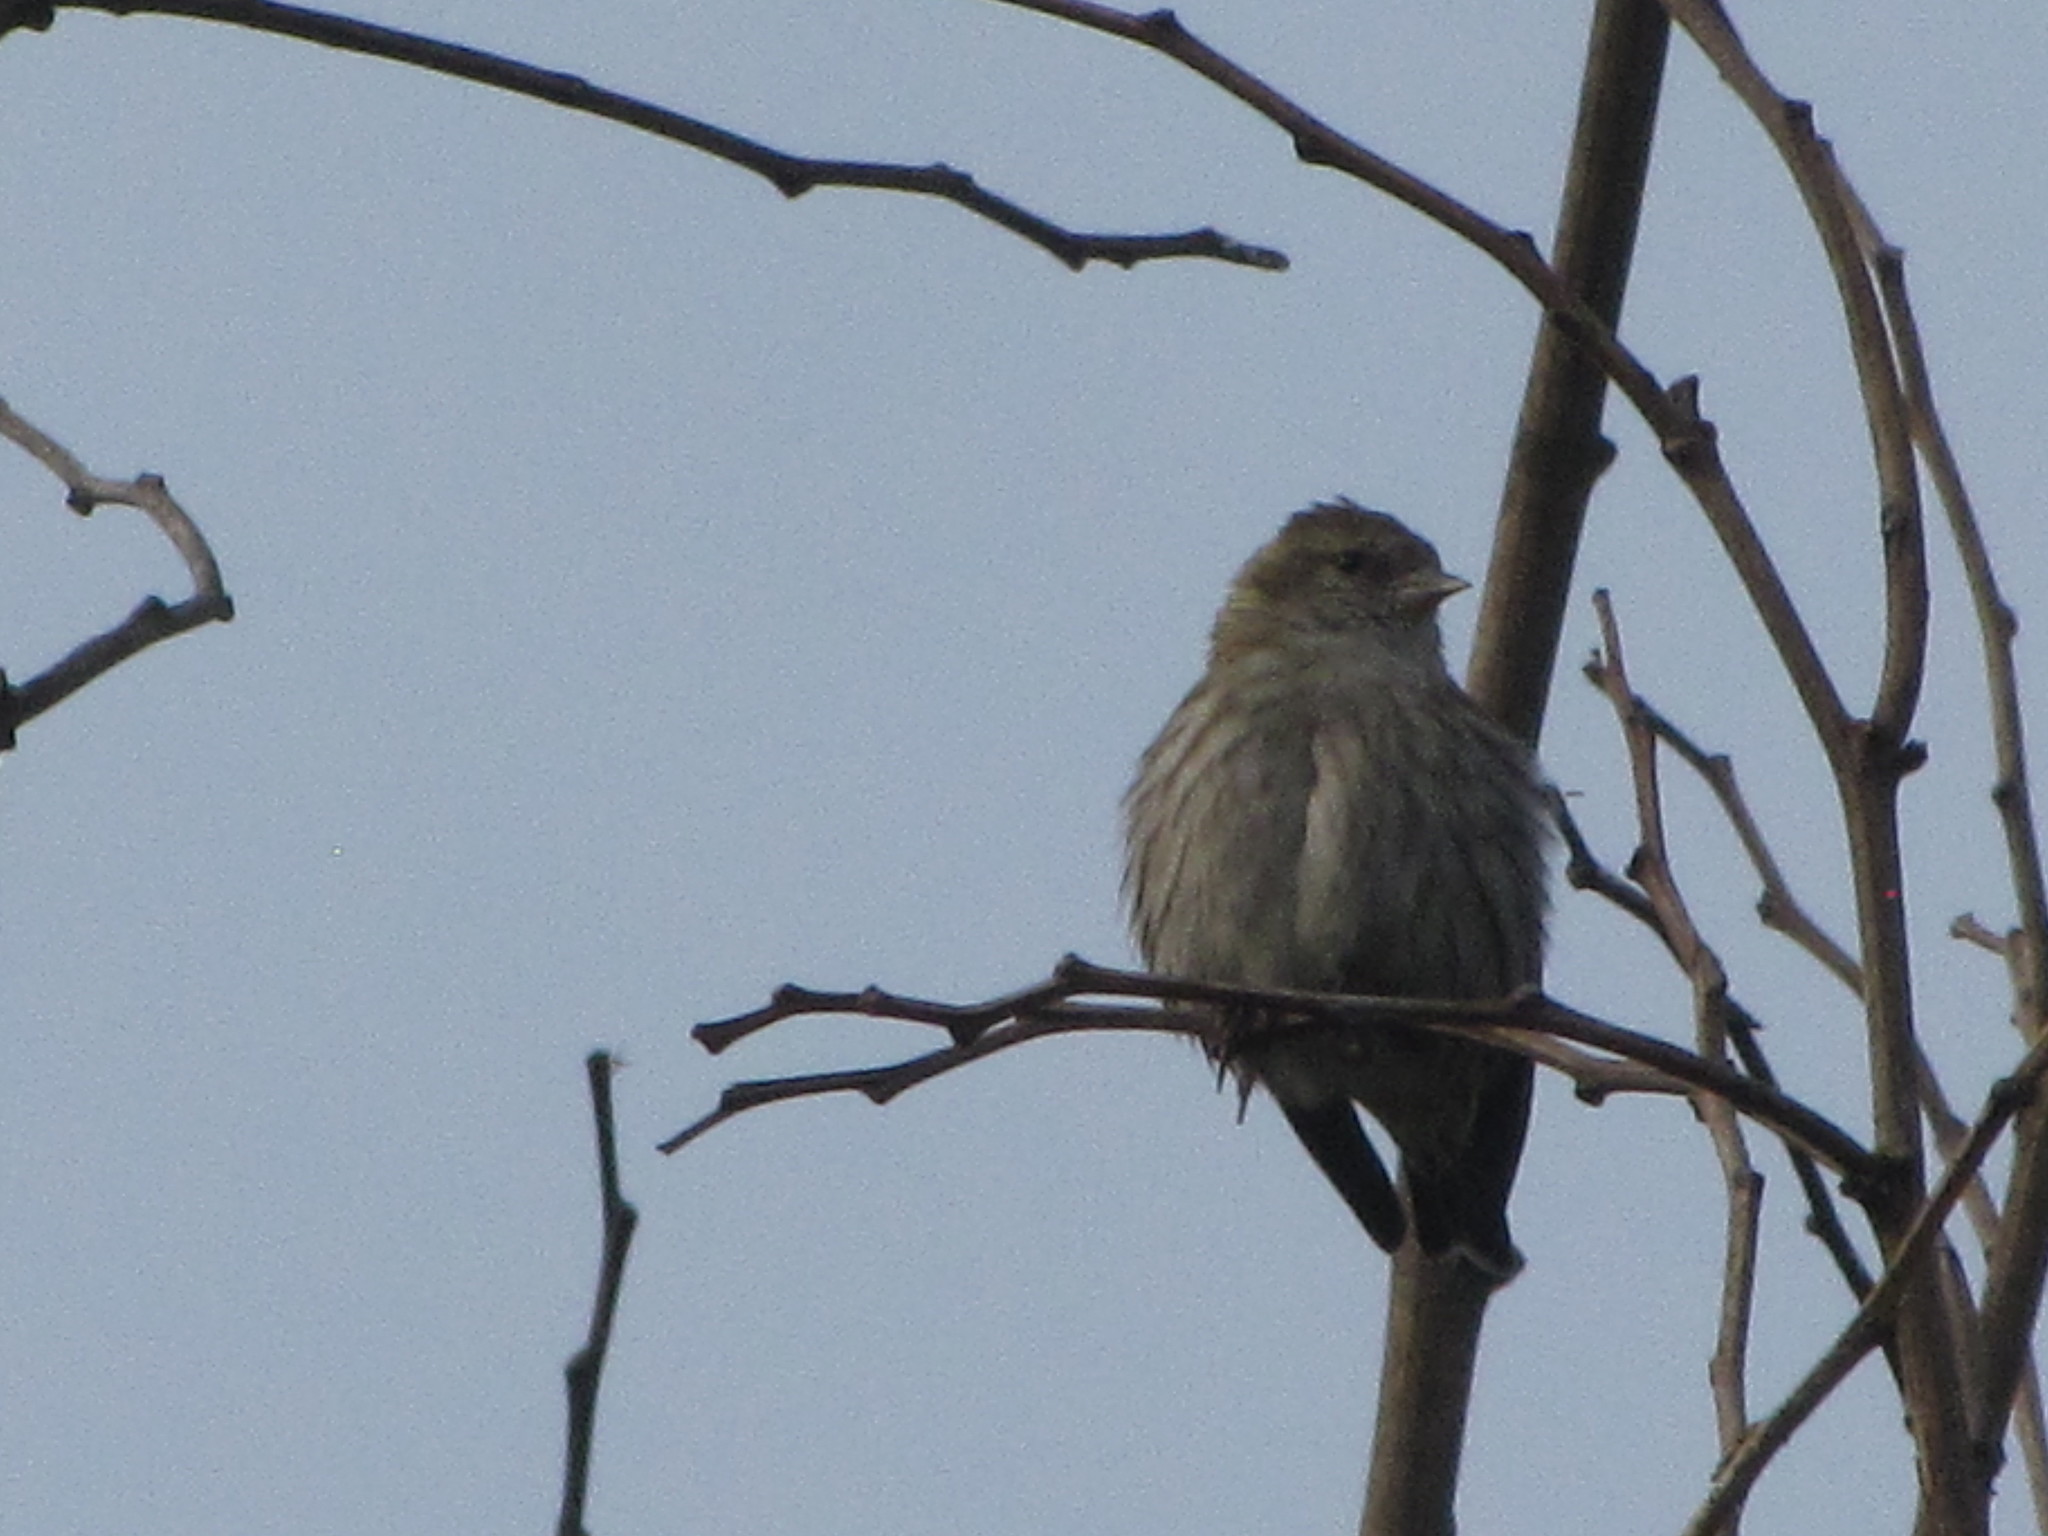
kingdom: Animalia
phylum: Chordata
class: Aves
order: Passeriformes
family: Fringillidae
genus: Spinus
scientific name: Spinus pinus
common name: Pine siskin
